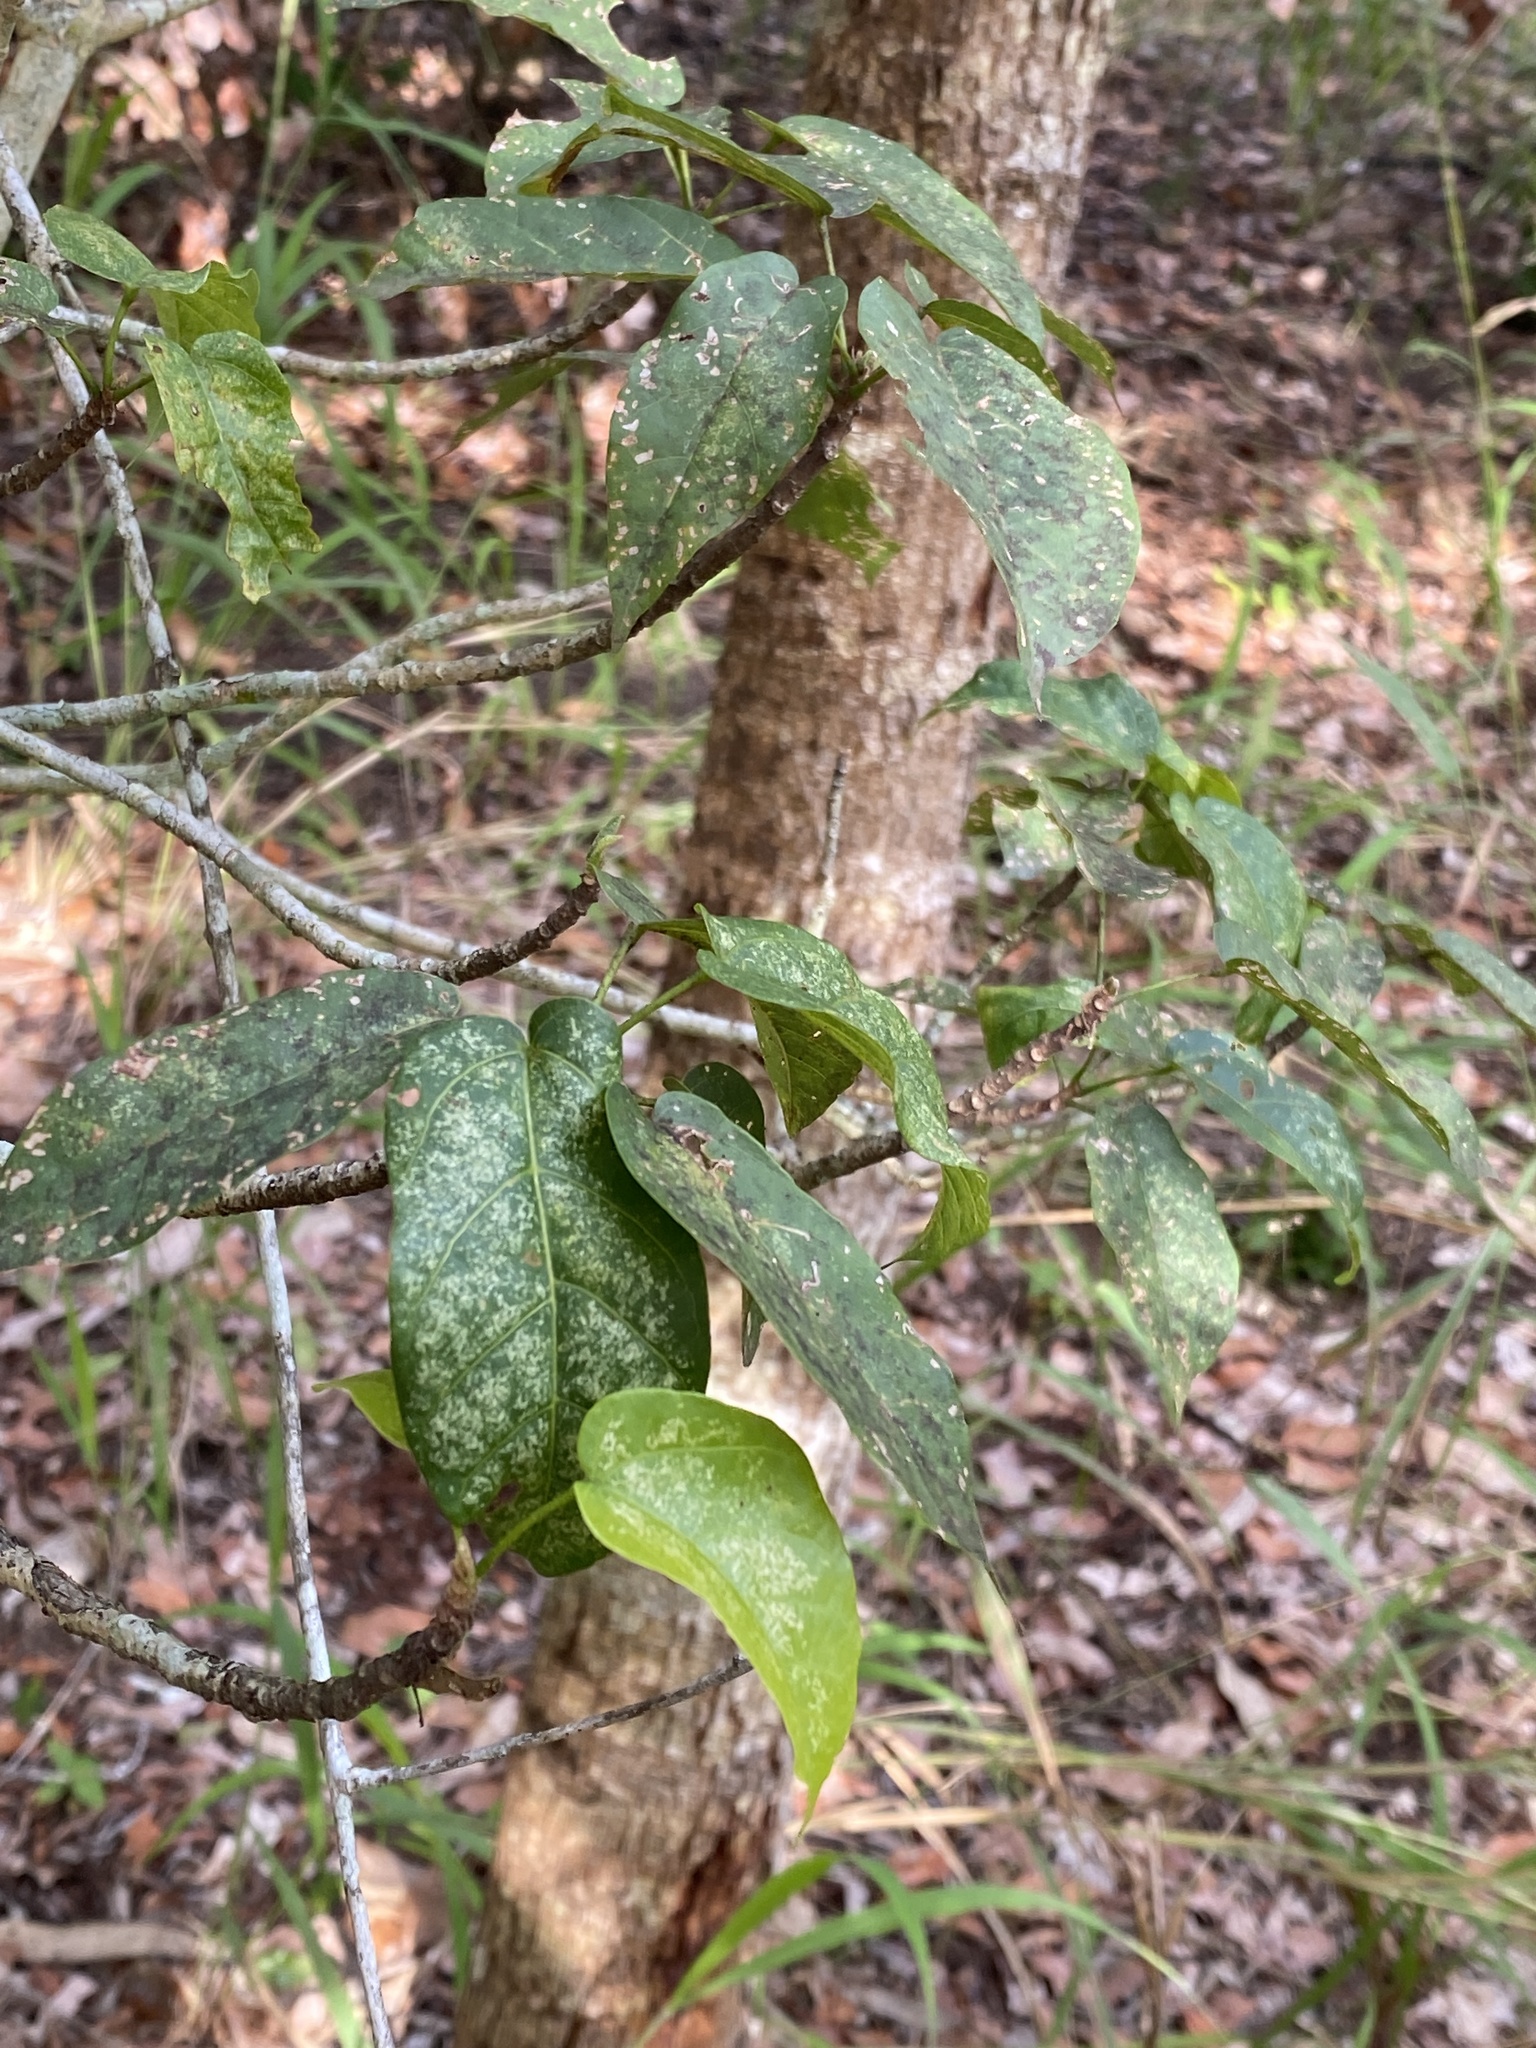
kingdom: Plantae
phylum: Tracheophyta
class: Magnoliopsida
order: Malvales
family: Malvaceae
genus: Sterculia
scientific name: Sterculia quadrifida
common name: Orange-fruit kurrajong
